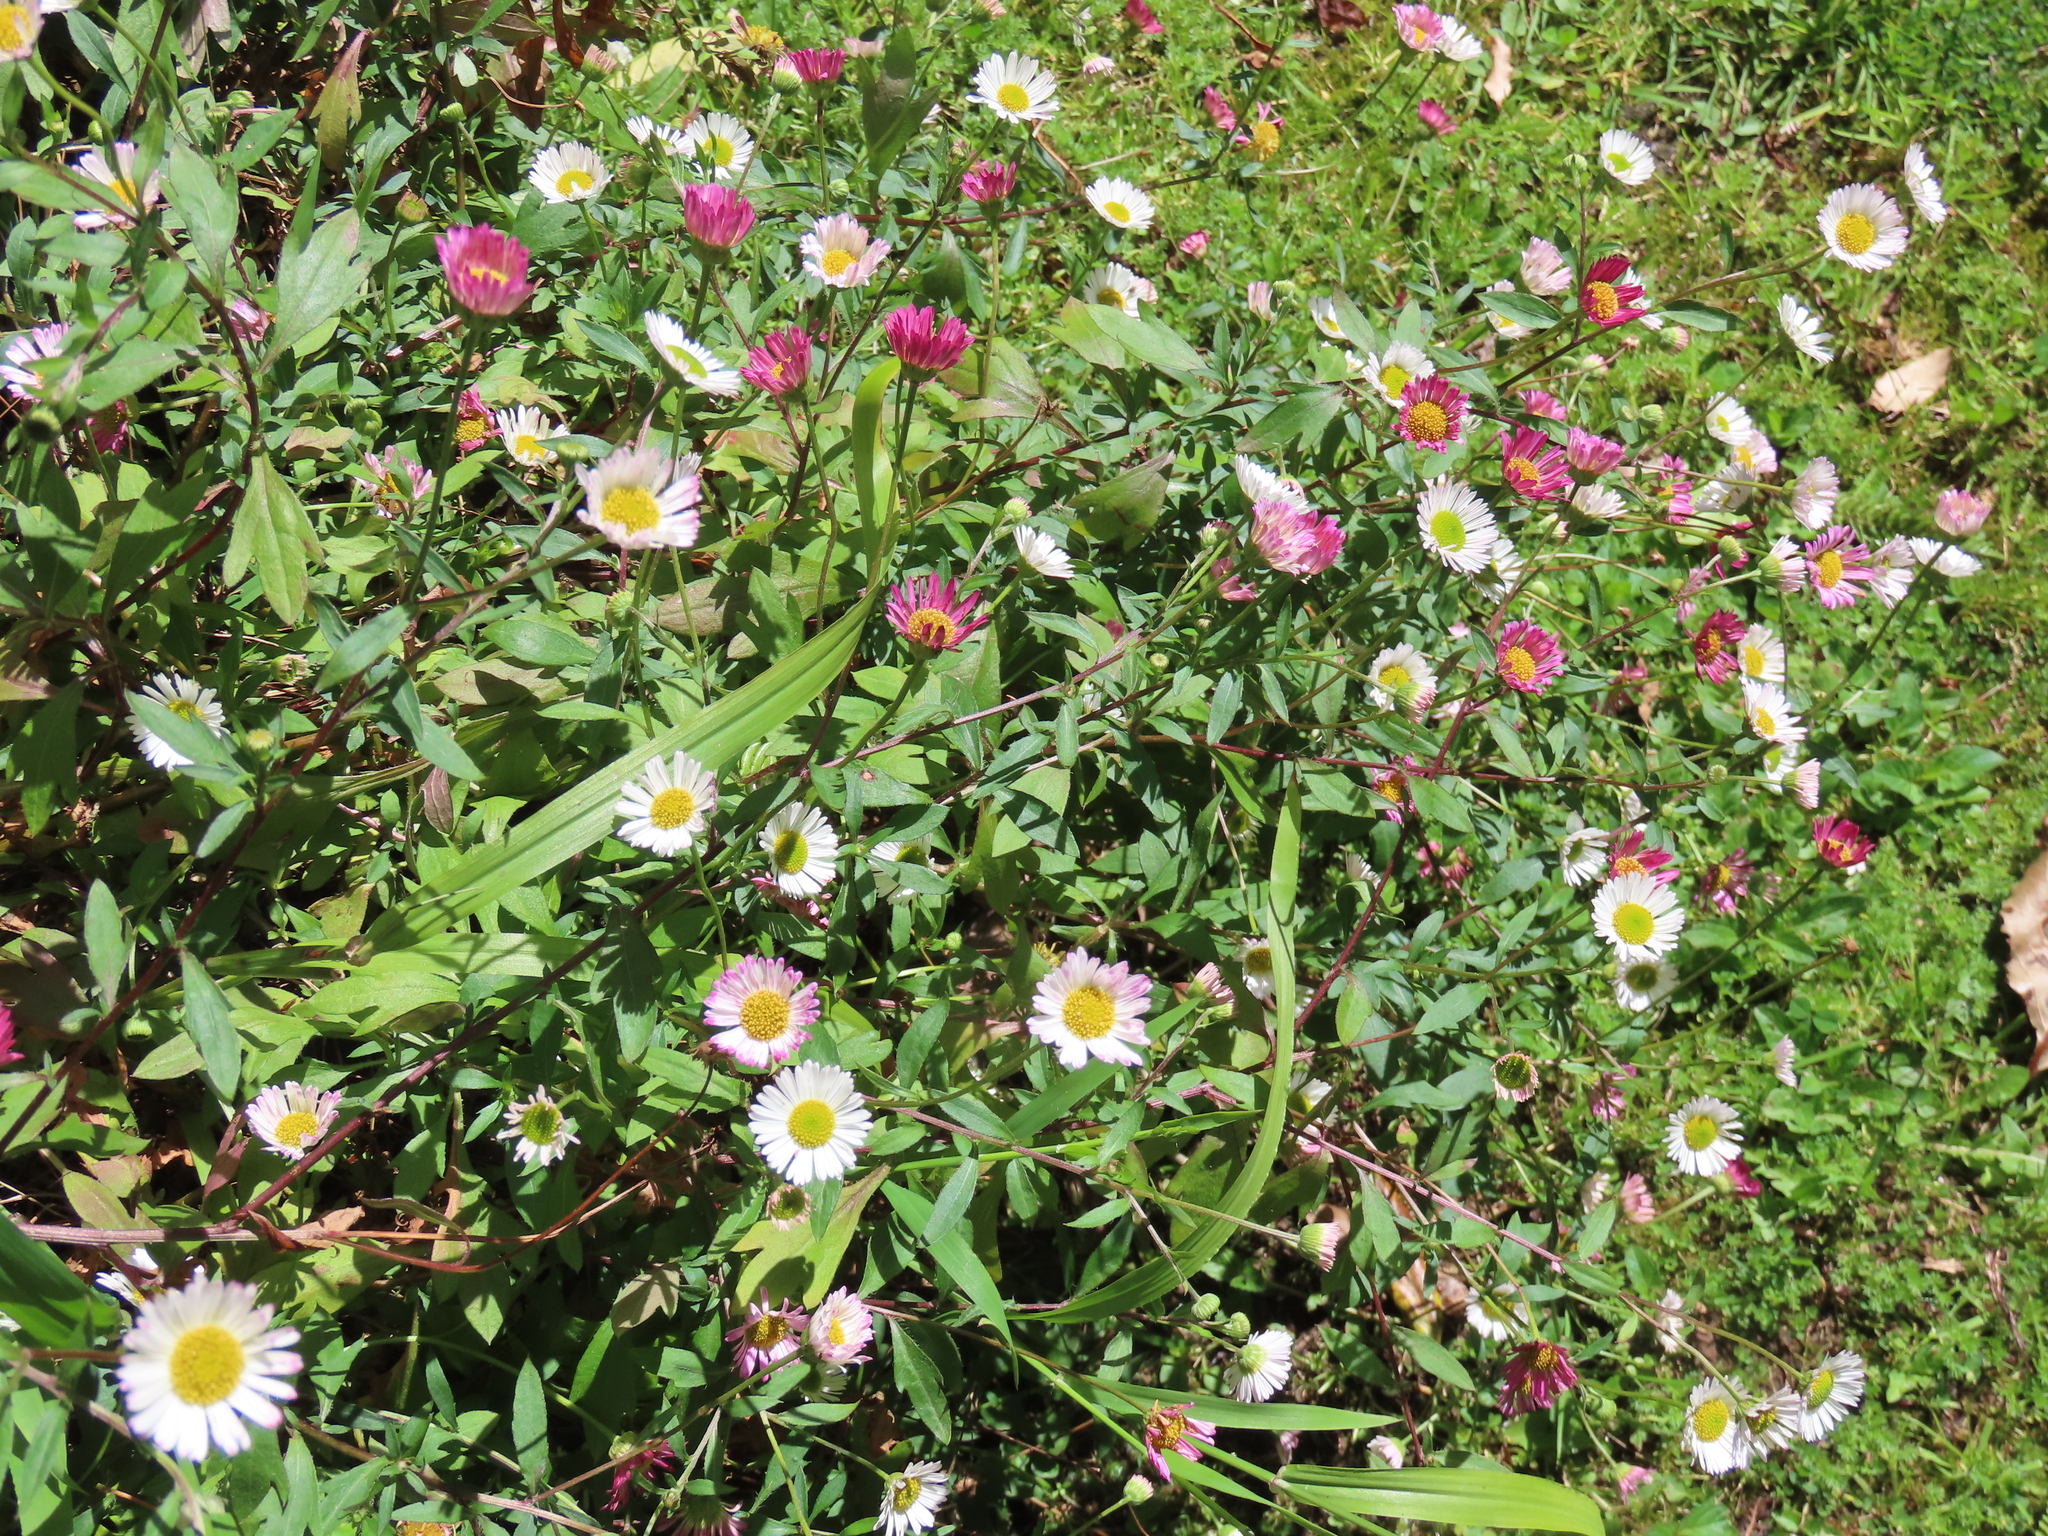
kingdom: Plantae
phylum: Tracheophyta
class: Magnoliopsida
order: Asterales
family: Asteraceae
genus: Erigeron
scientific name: Erigeron karvinskianus
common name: Mexican fleabane
